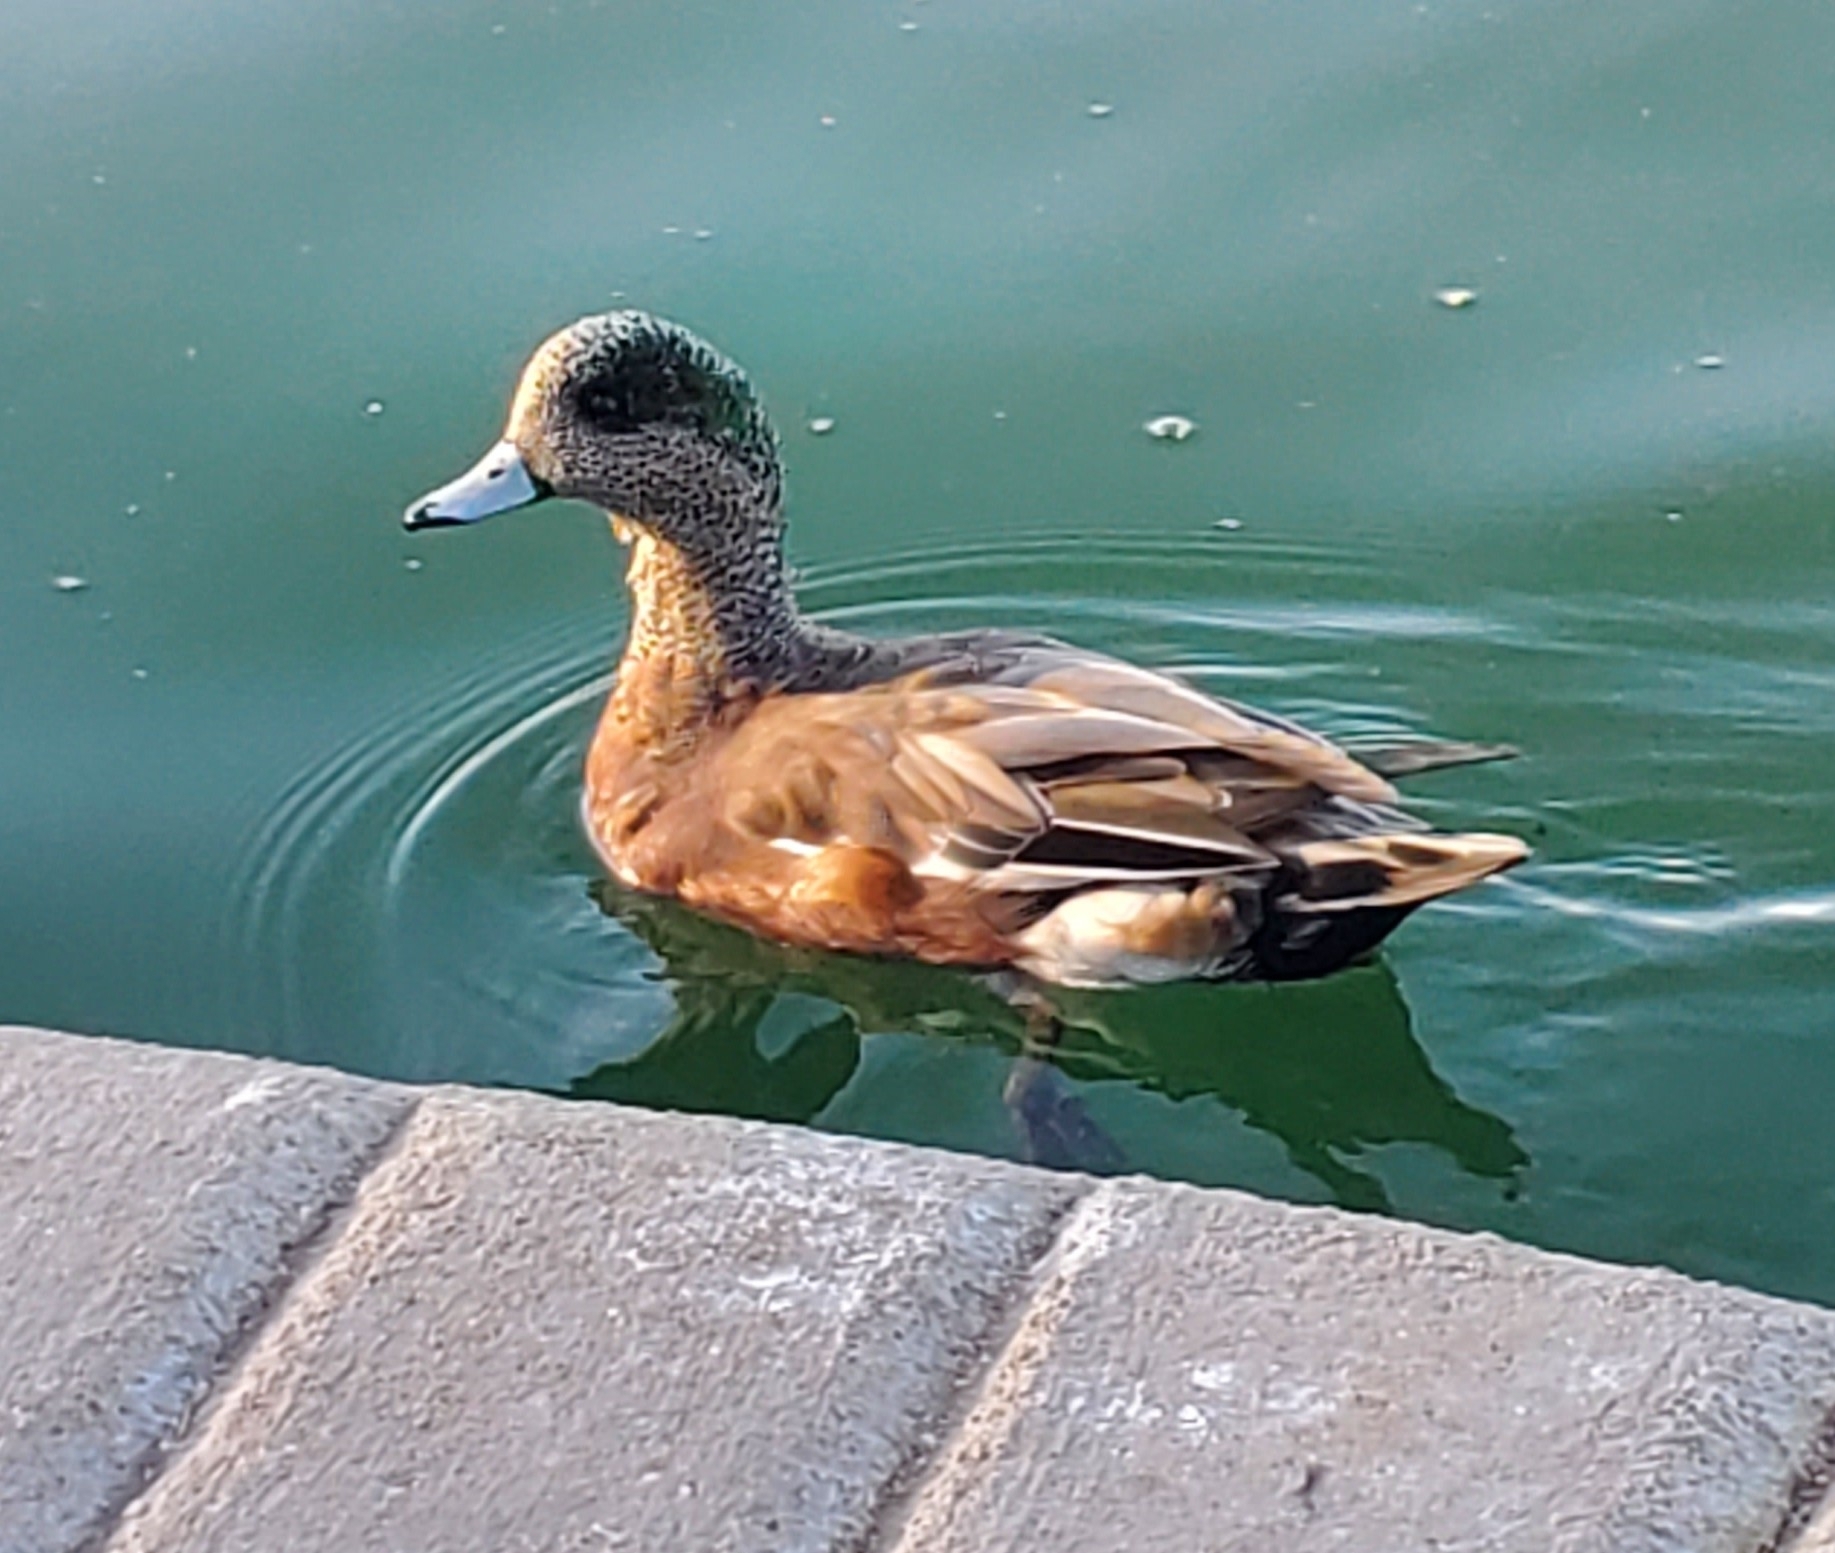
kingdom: Animalia
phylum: Chordata
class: Aves
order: Anseriformes
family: Anatidae
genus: Mareca
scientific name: Mareca americana
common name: American wigeon
